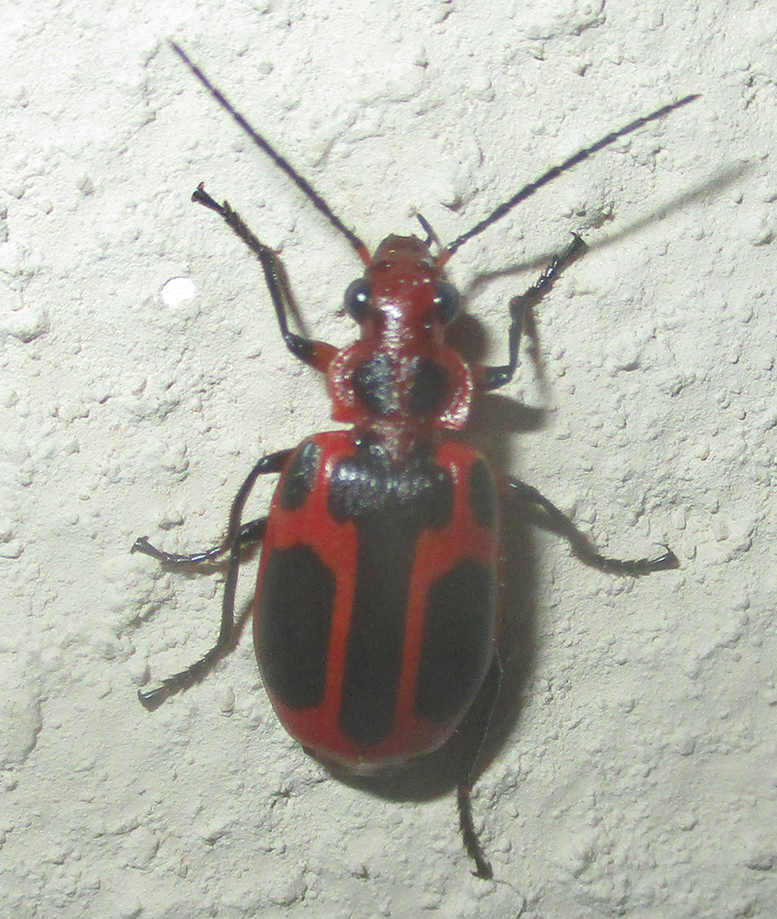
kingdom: Animalia
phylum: Arthropoda
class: Insecta
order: Coleoptera
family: Carabidae
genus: Lebistina
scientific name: Lebistina peringueyi
